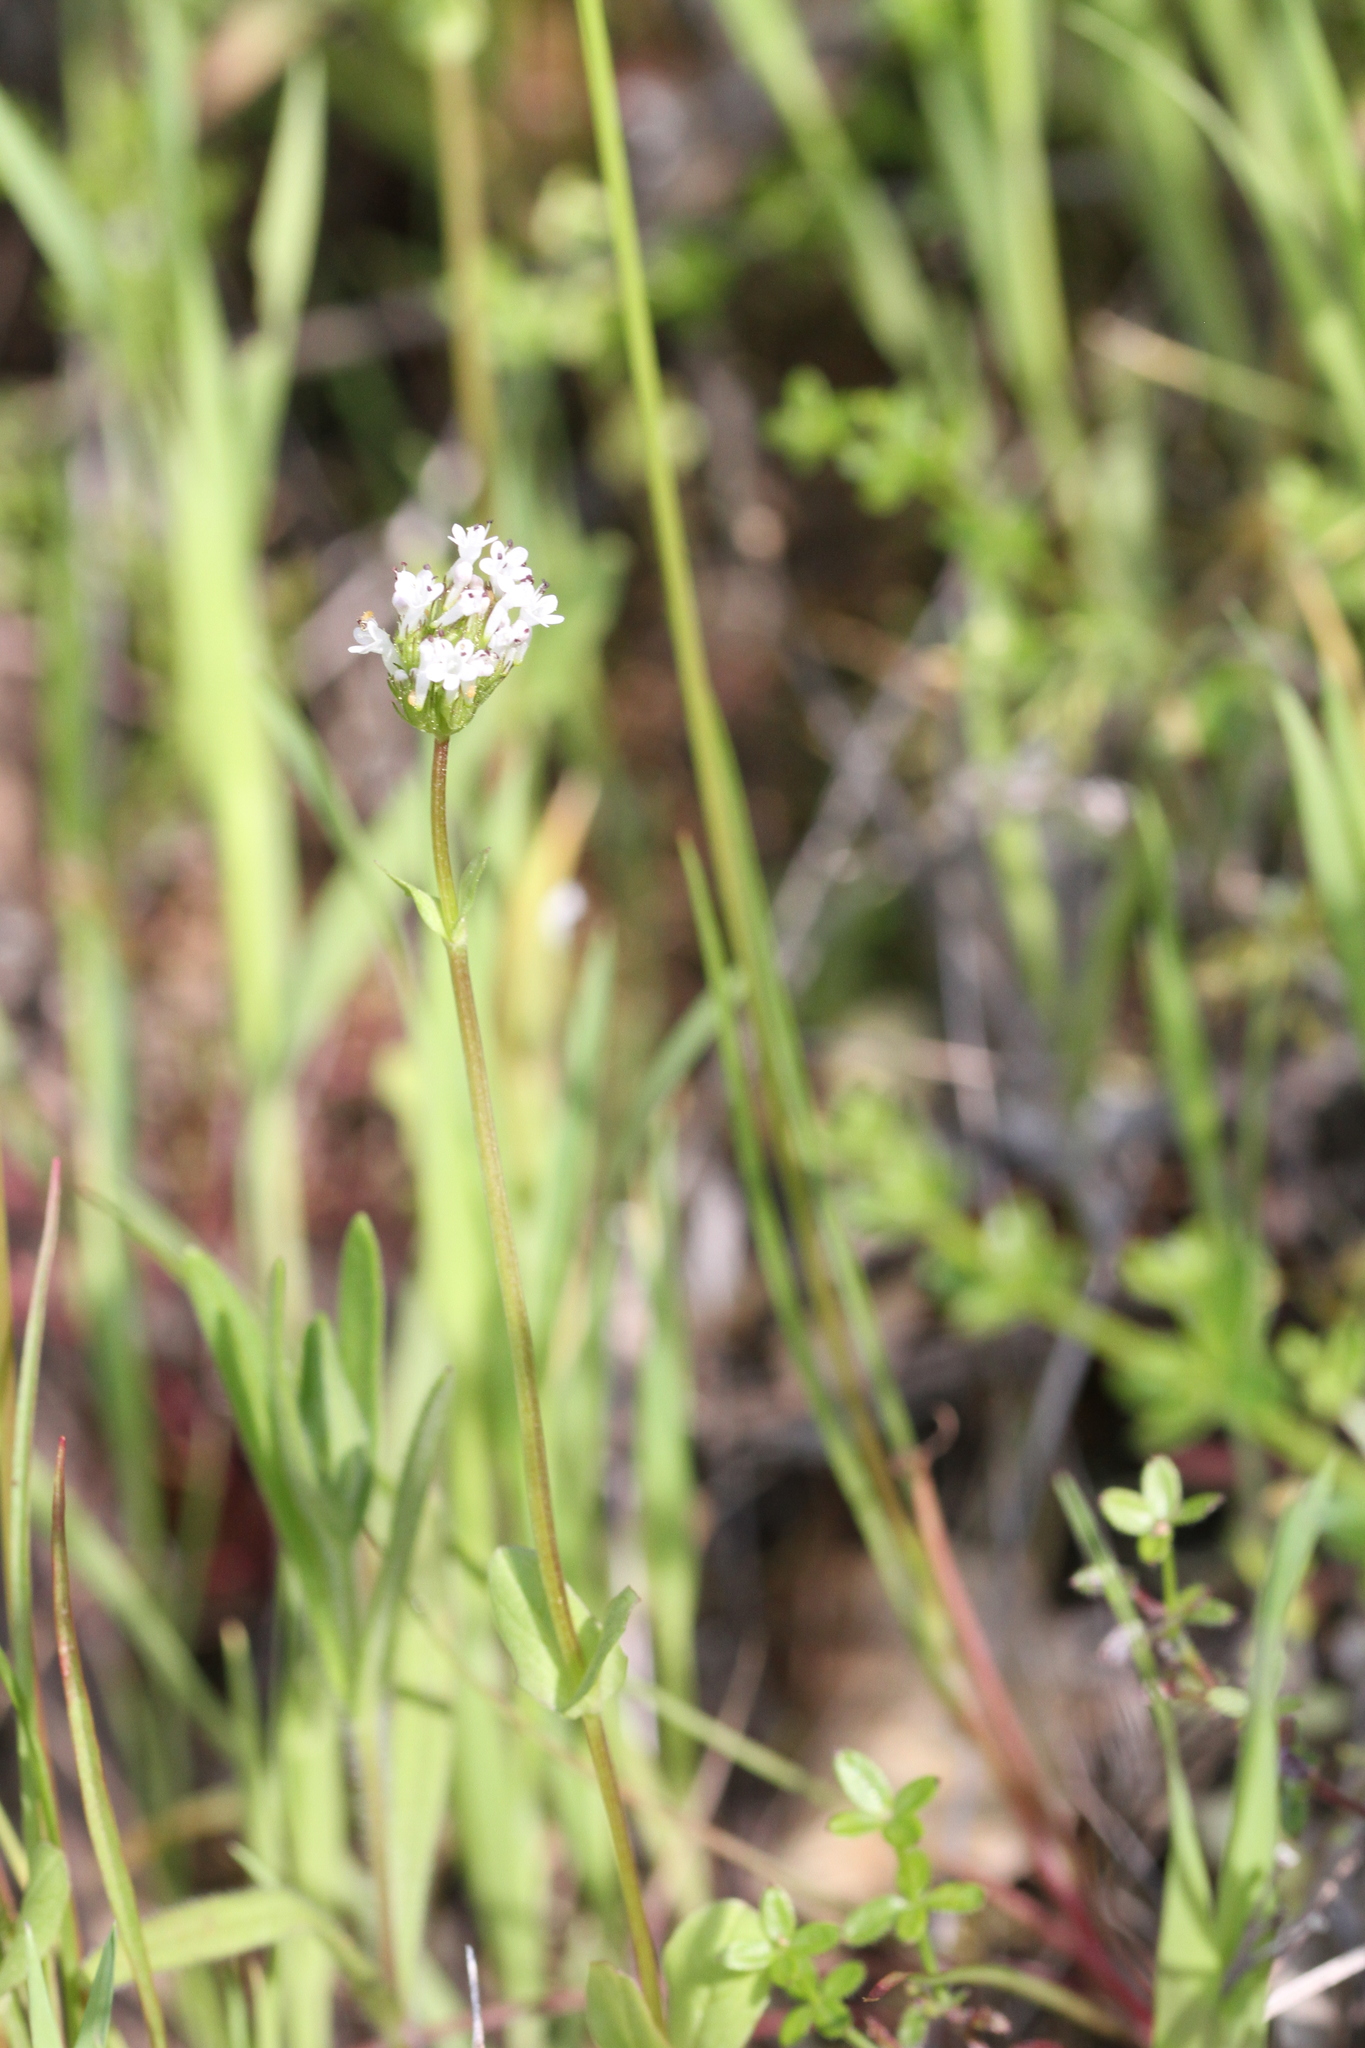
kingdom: Plantae
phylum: Tracheophyta
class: Magnoliopsida
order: Dipsacales
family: Caprifoliaceae
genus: Plectritis
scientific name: Plectritis macroptera
